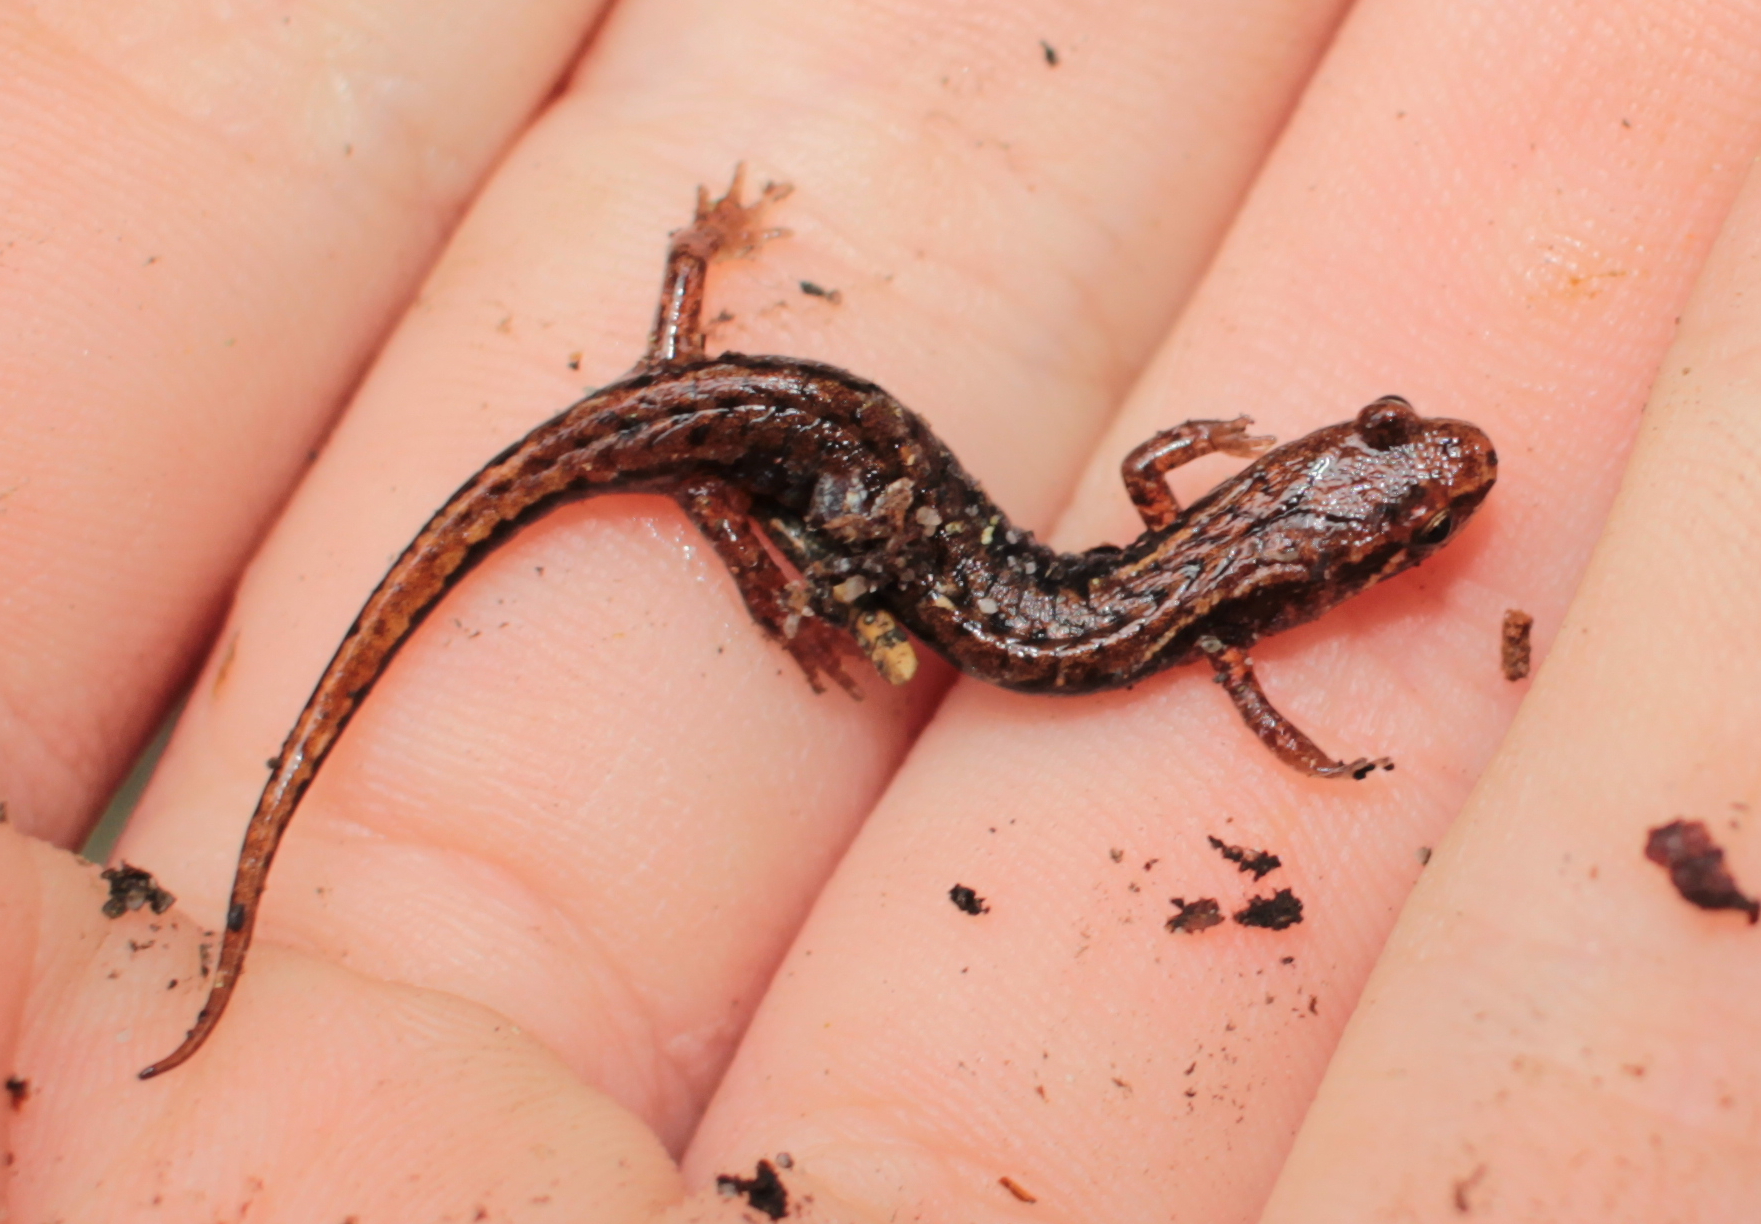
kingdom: Animalia
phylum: Chordata
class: Amphibia
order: Caudata
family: Plethodontidae
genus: Desmognathus
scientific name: Desmognathus organi
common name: Northern pygmy salamander
